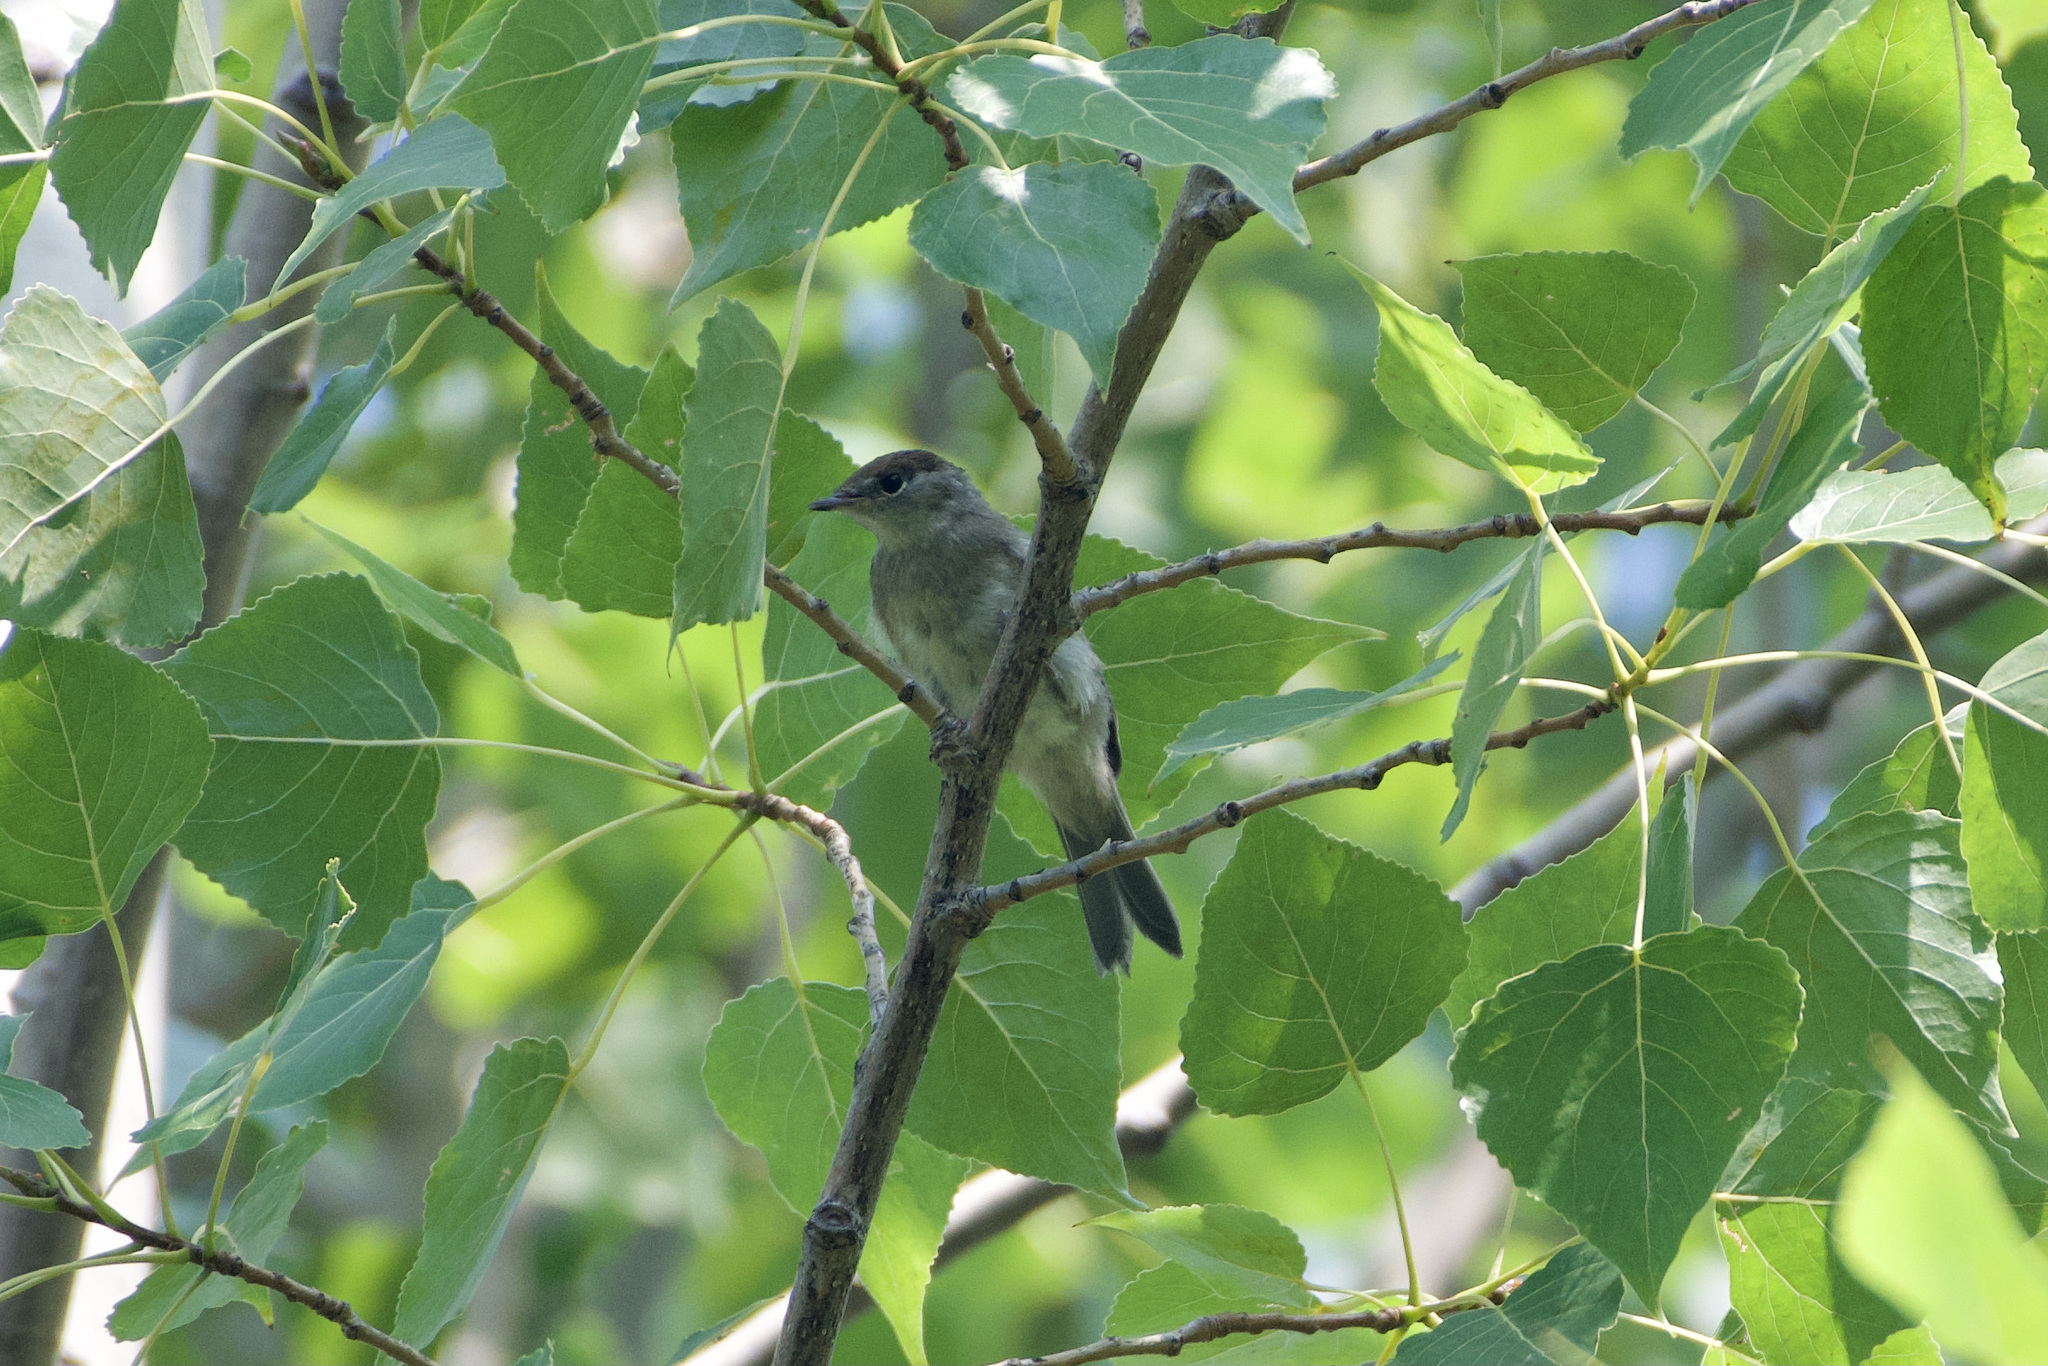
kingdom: Animalia
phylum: Chordata
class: Aves
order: Passeriformes
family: Sylviidae
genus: Sylvia
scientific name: Sylvia atricapilla
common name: Eurasian blackcap
